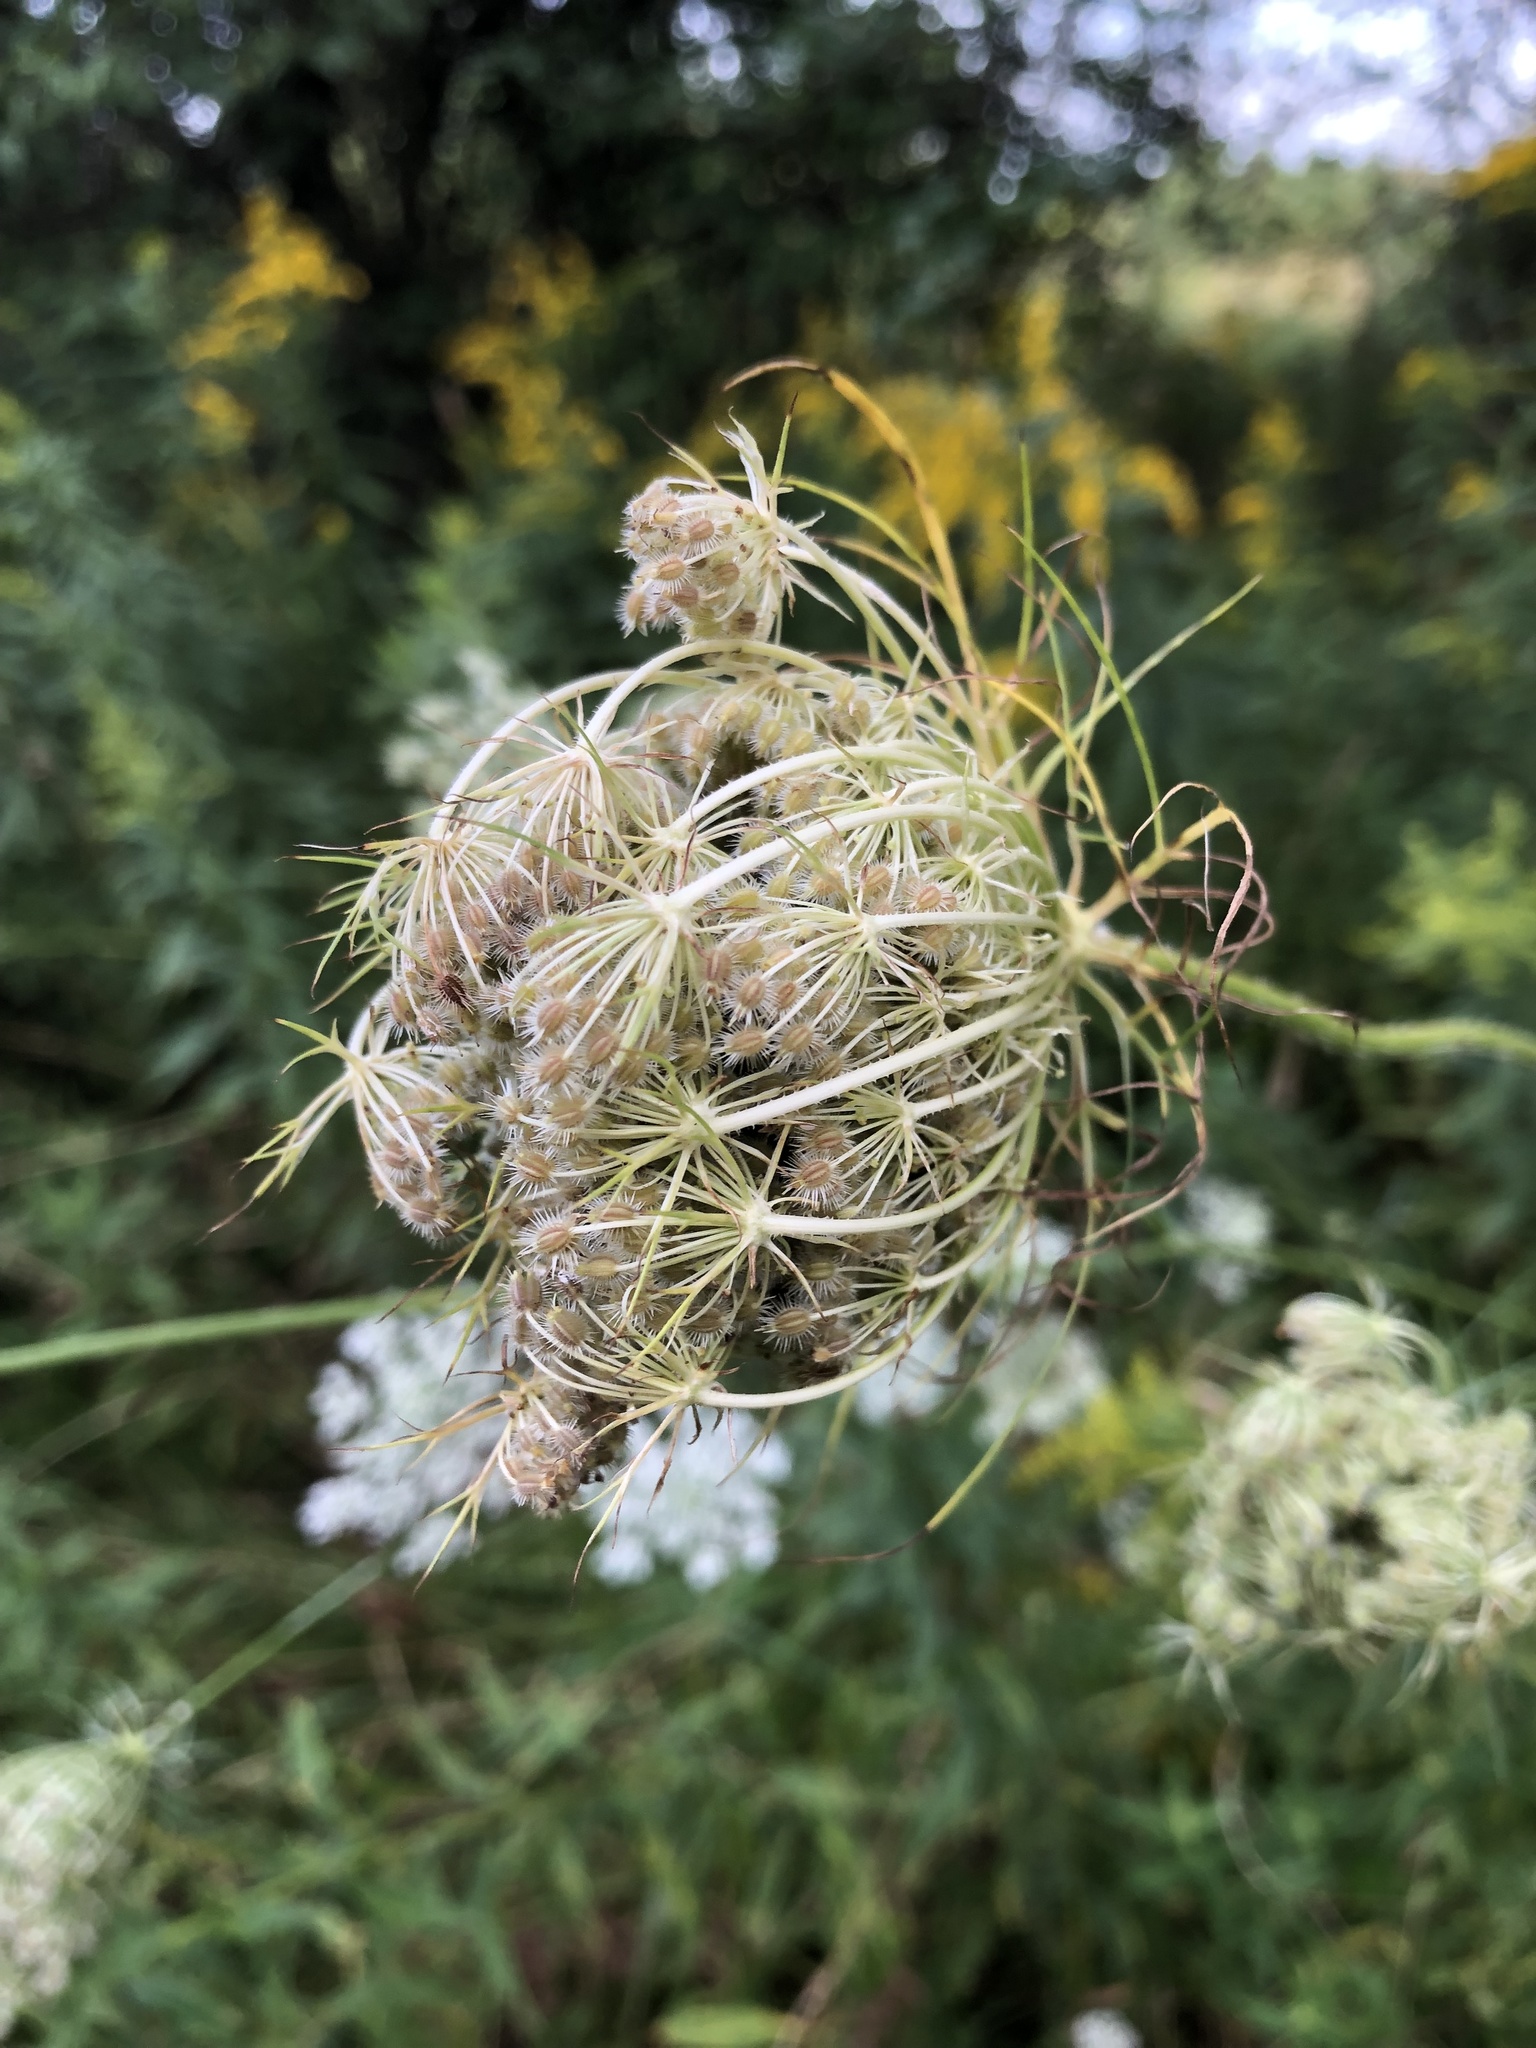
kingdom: Plantae
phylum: Tracheophyta
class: Magnoliopsida
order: Apiales
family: Apiaceae
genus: Daucus
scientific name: Daucus carota
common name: Wild carrot
